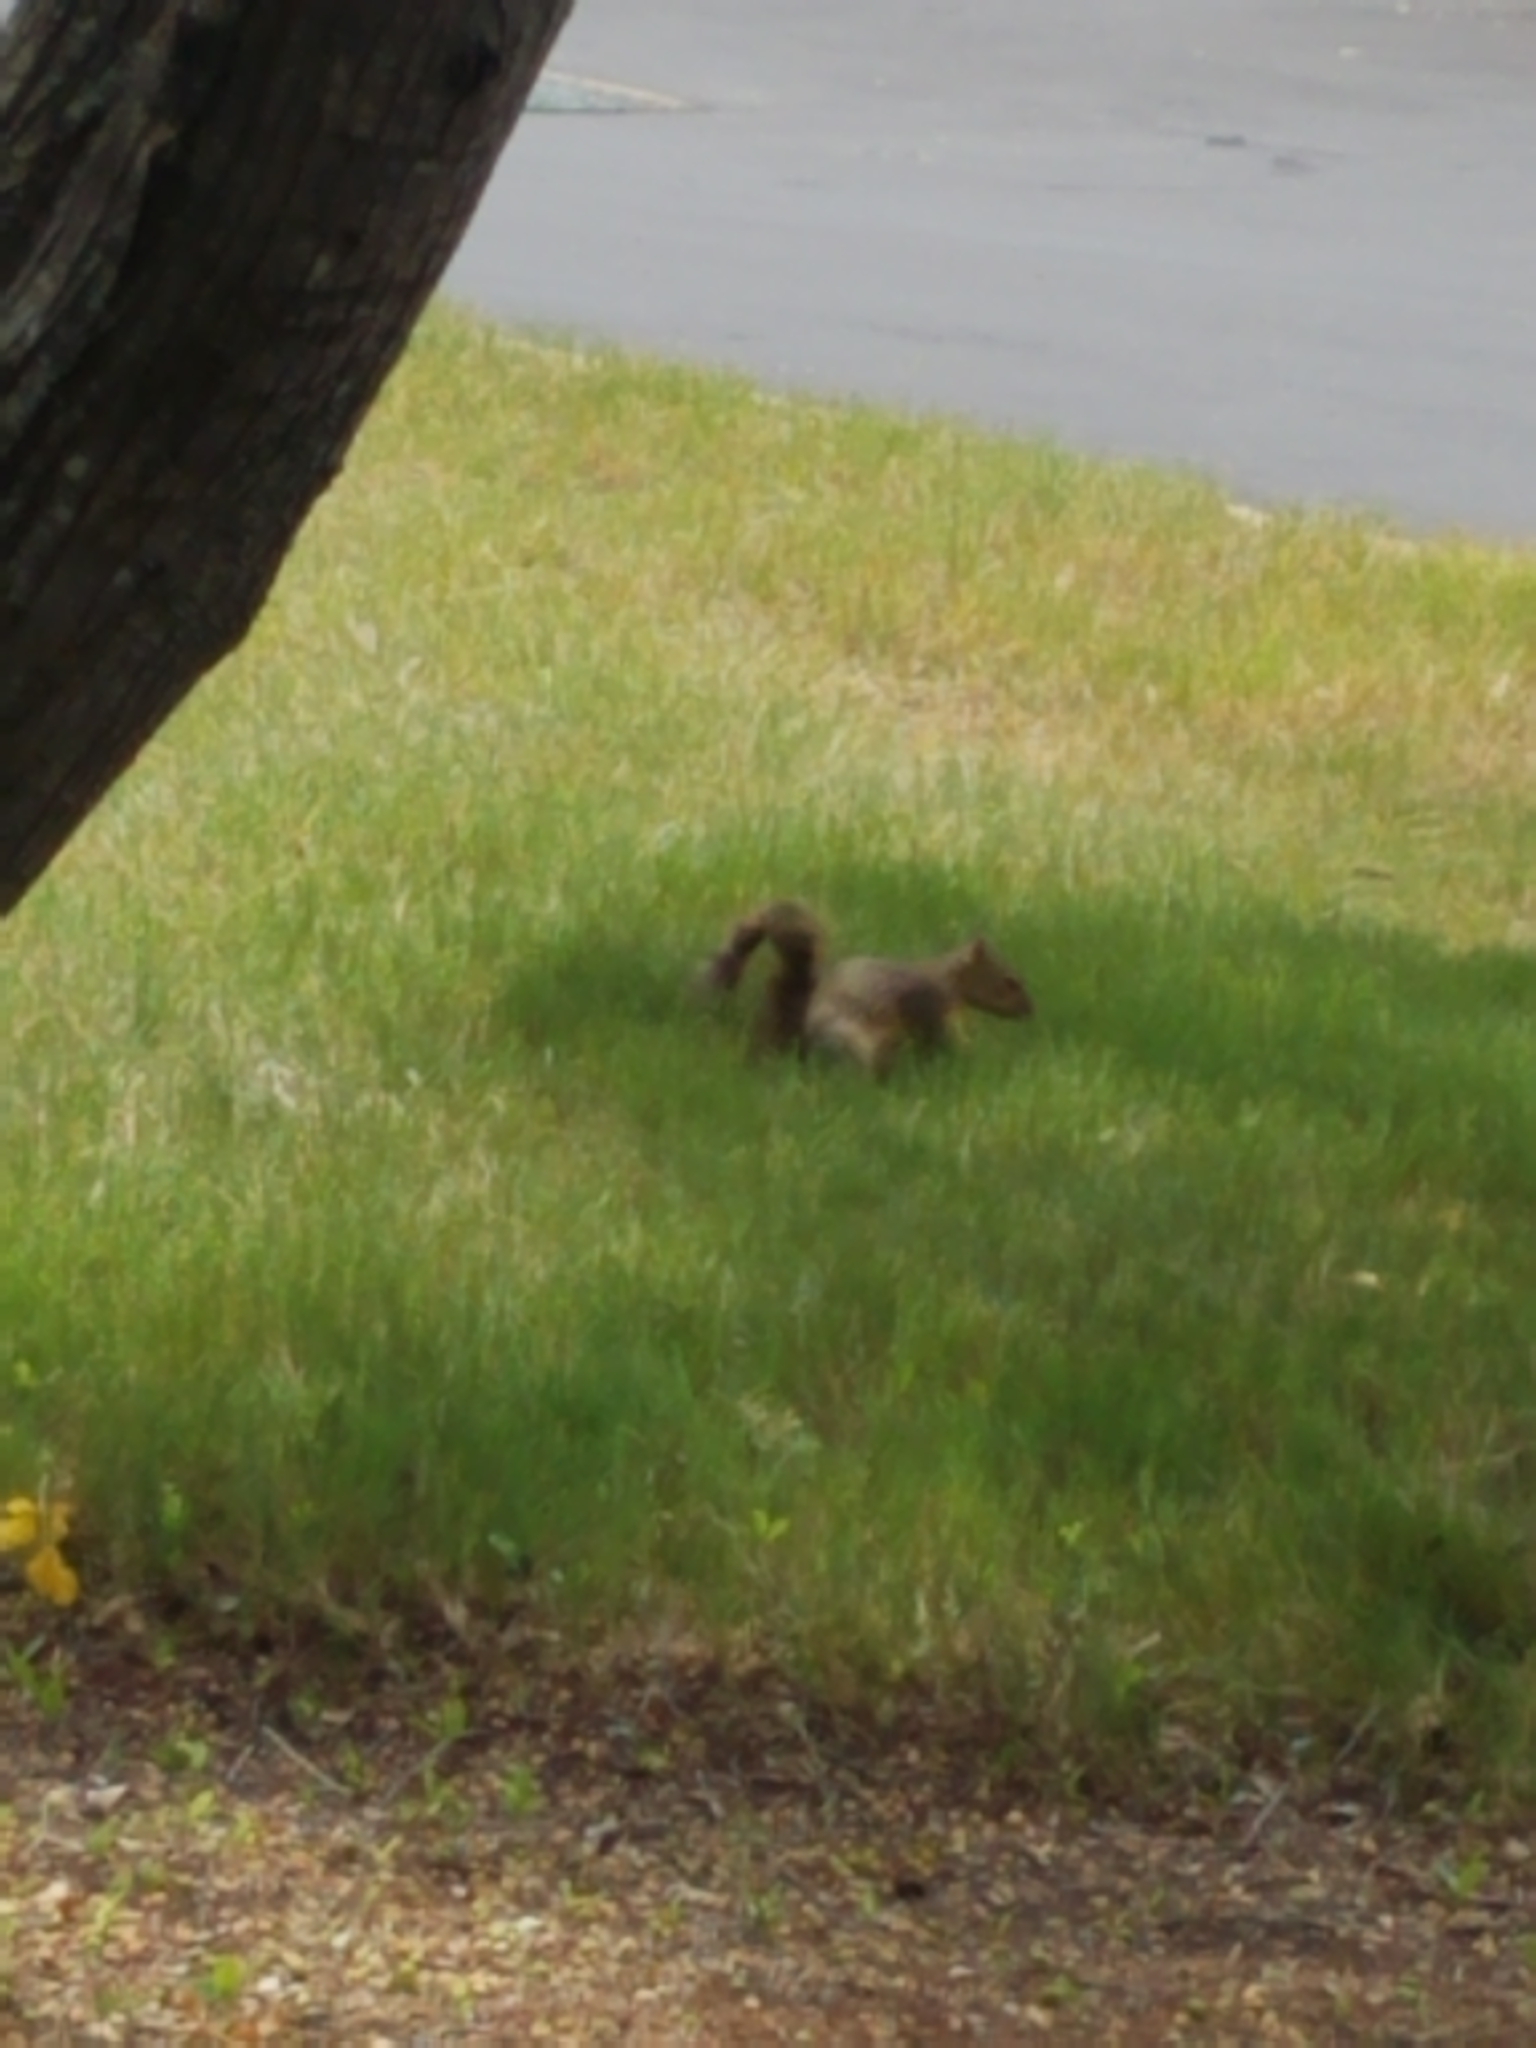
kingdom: Animalia
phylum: Chordata
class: Mammalia
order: Rodentia
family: Sciuridae
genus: Sciurus
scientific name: Sciurus niger
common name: Fox squirrel
